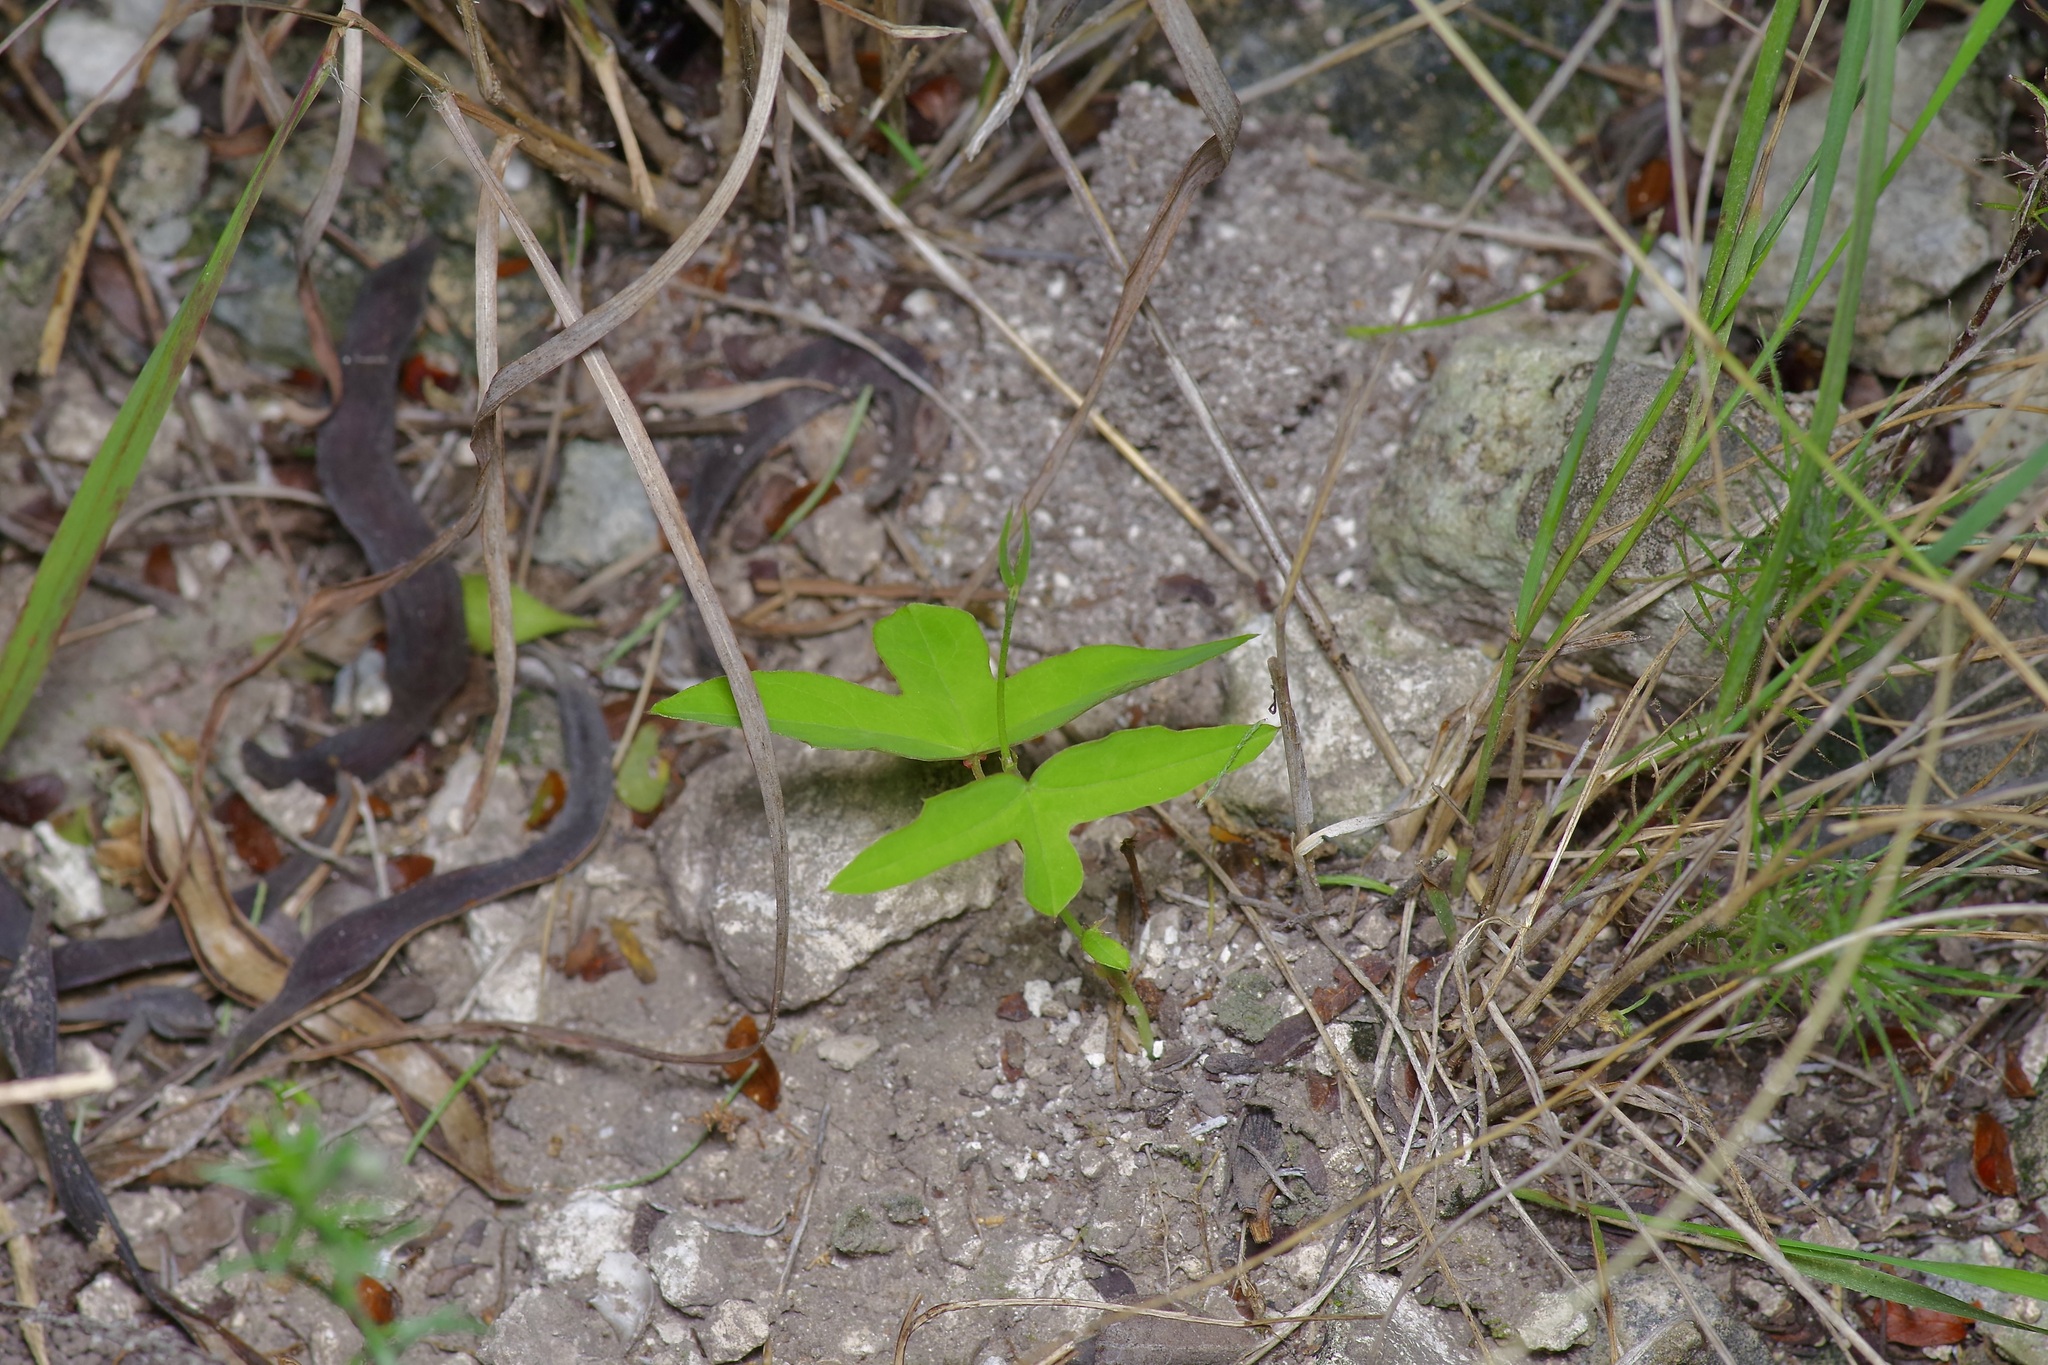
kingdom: Plantae
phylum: Tracheophyta
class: Magnoliopsida
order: Malpighiales
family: Passifloraceae
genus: Passiflora
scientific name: Passiflora tenuiloba
